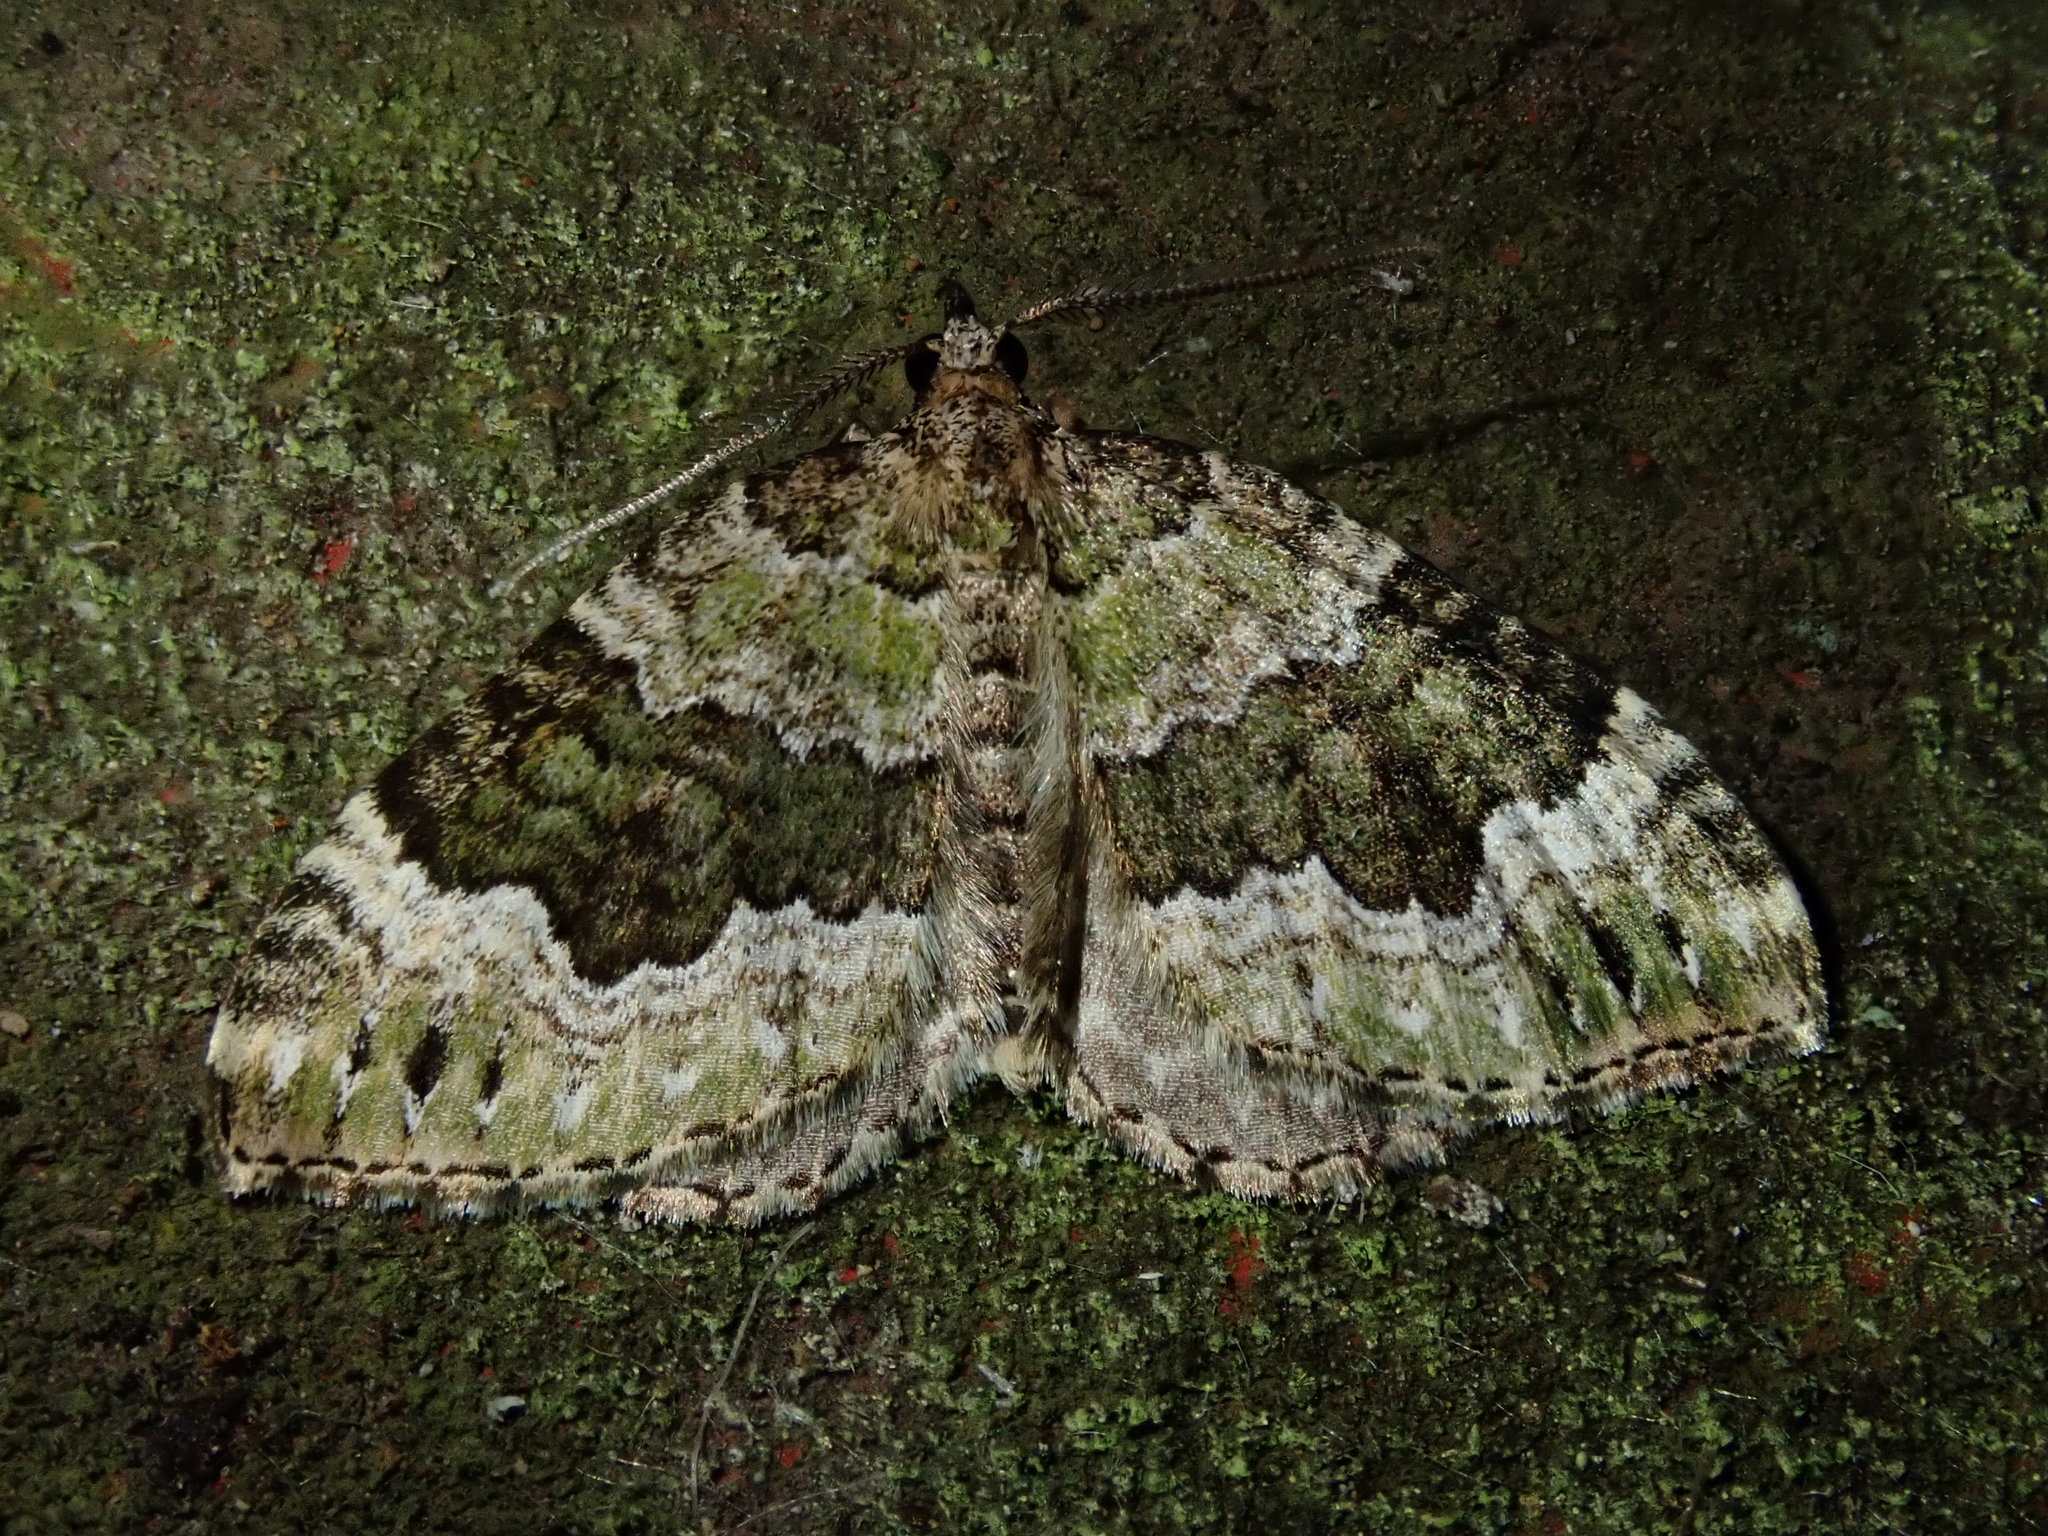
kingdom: Animalia
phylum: Arthropoda
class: Insecta
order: Lepidoptera
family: Geometridae
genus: Colostygia
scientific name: Colostygia olivata
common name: Beech-green carpet
